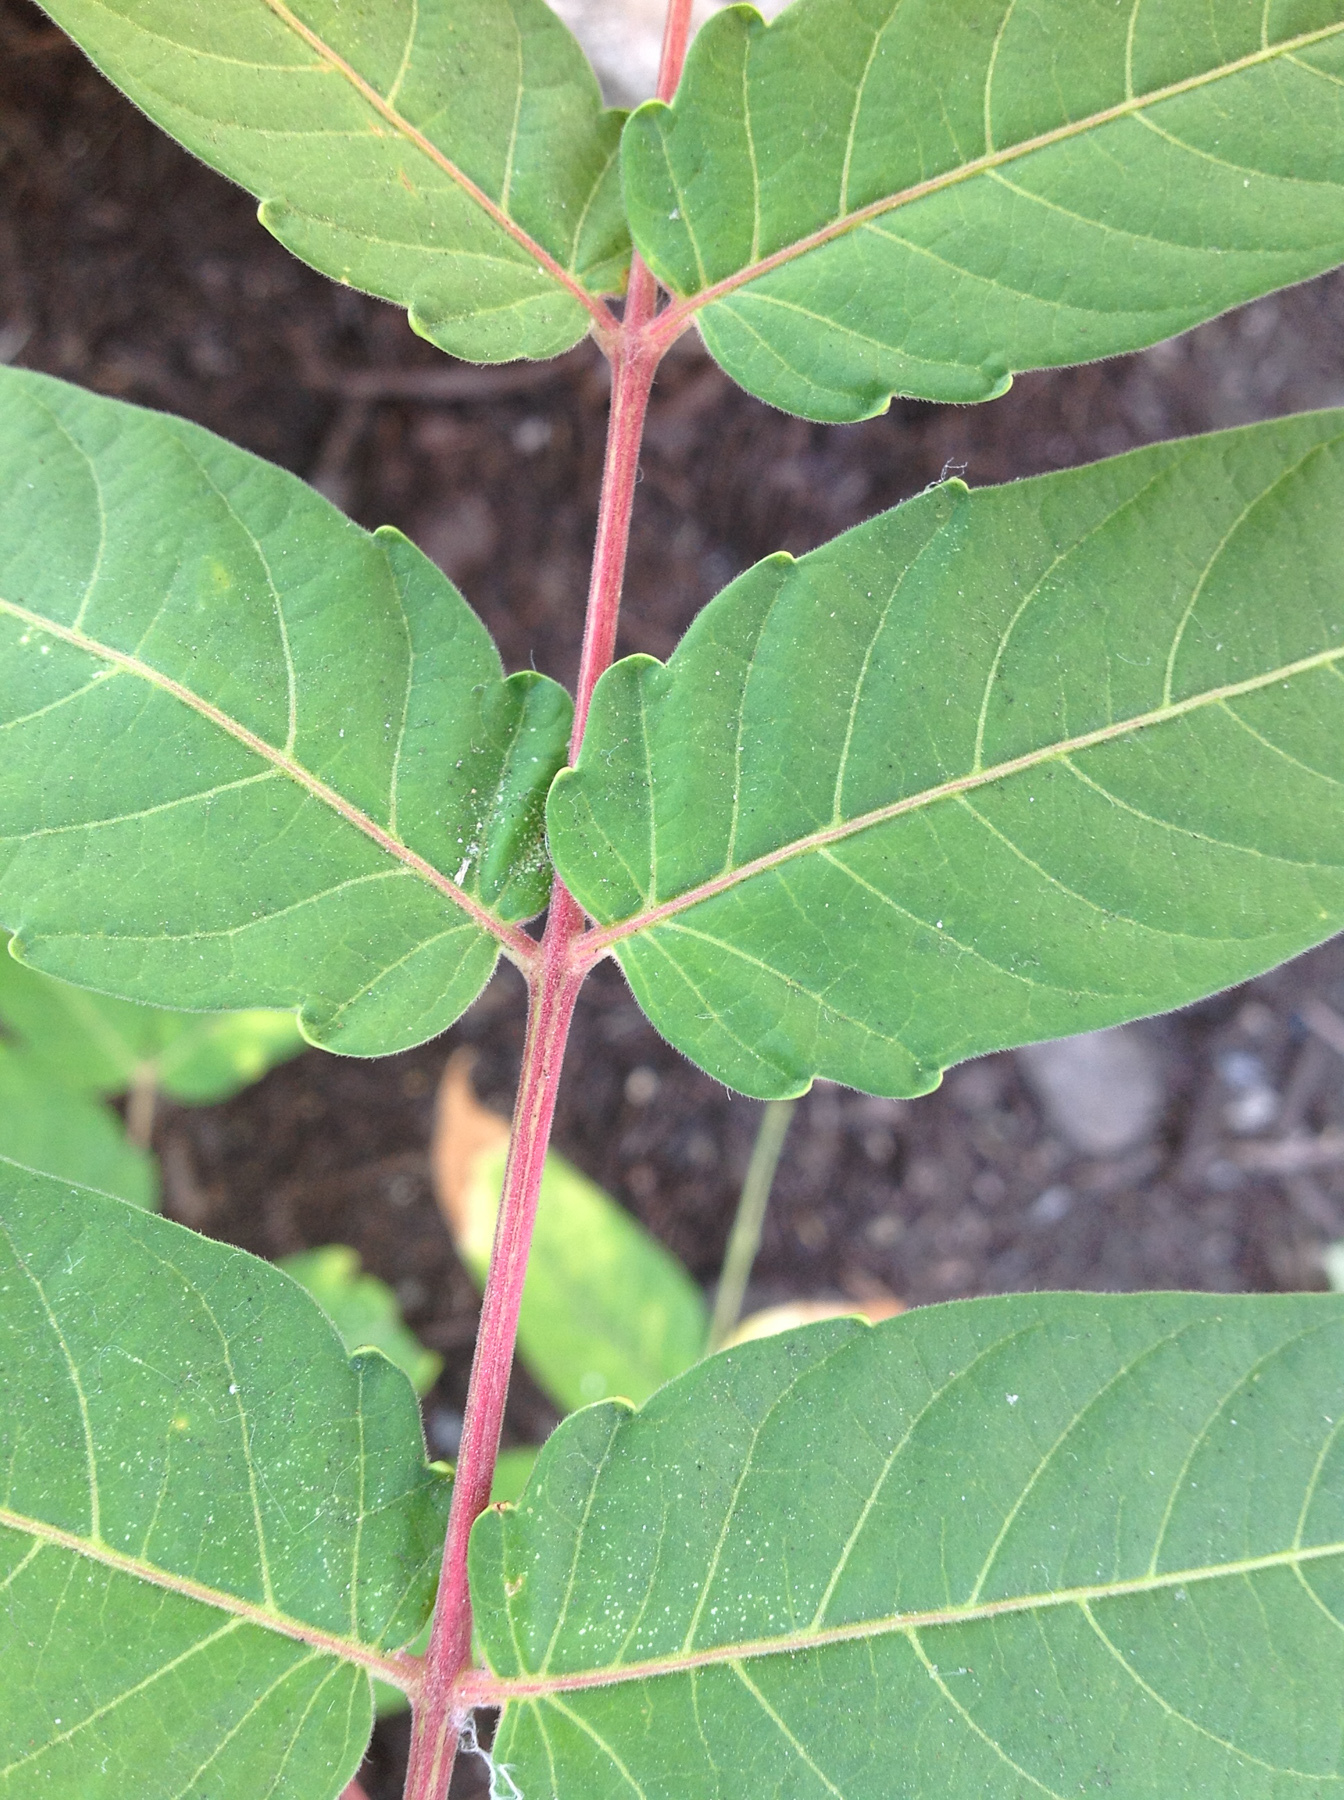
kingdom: Plantae
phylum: Tracheophyta
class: Magnoliopsida
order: Sapindales
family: Simaroubaceae
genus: Ailanthus
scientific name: Ailanthus altissima
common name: Tree-of-heaven
